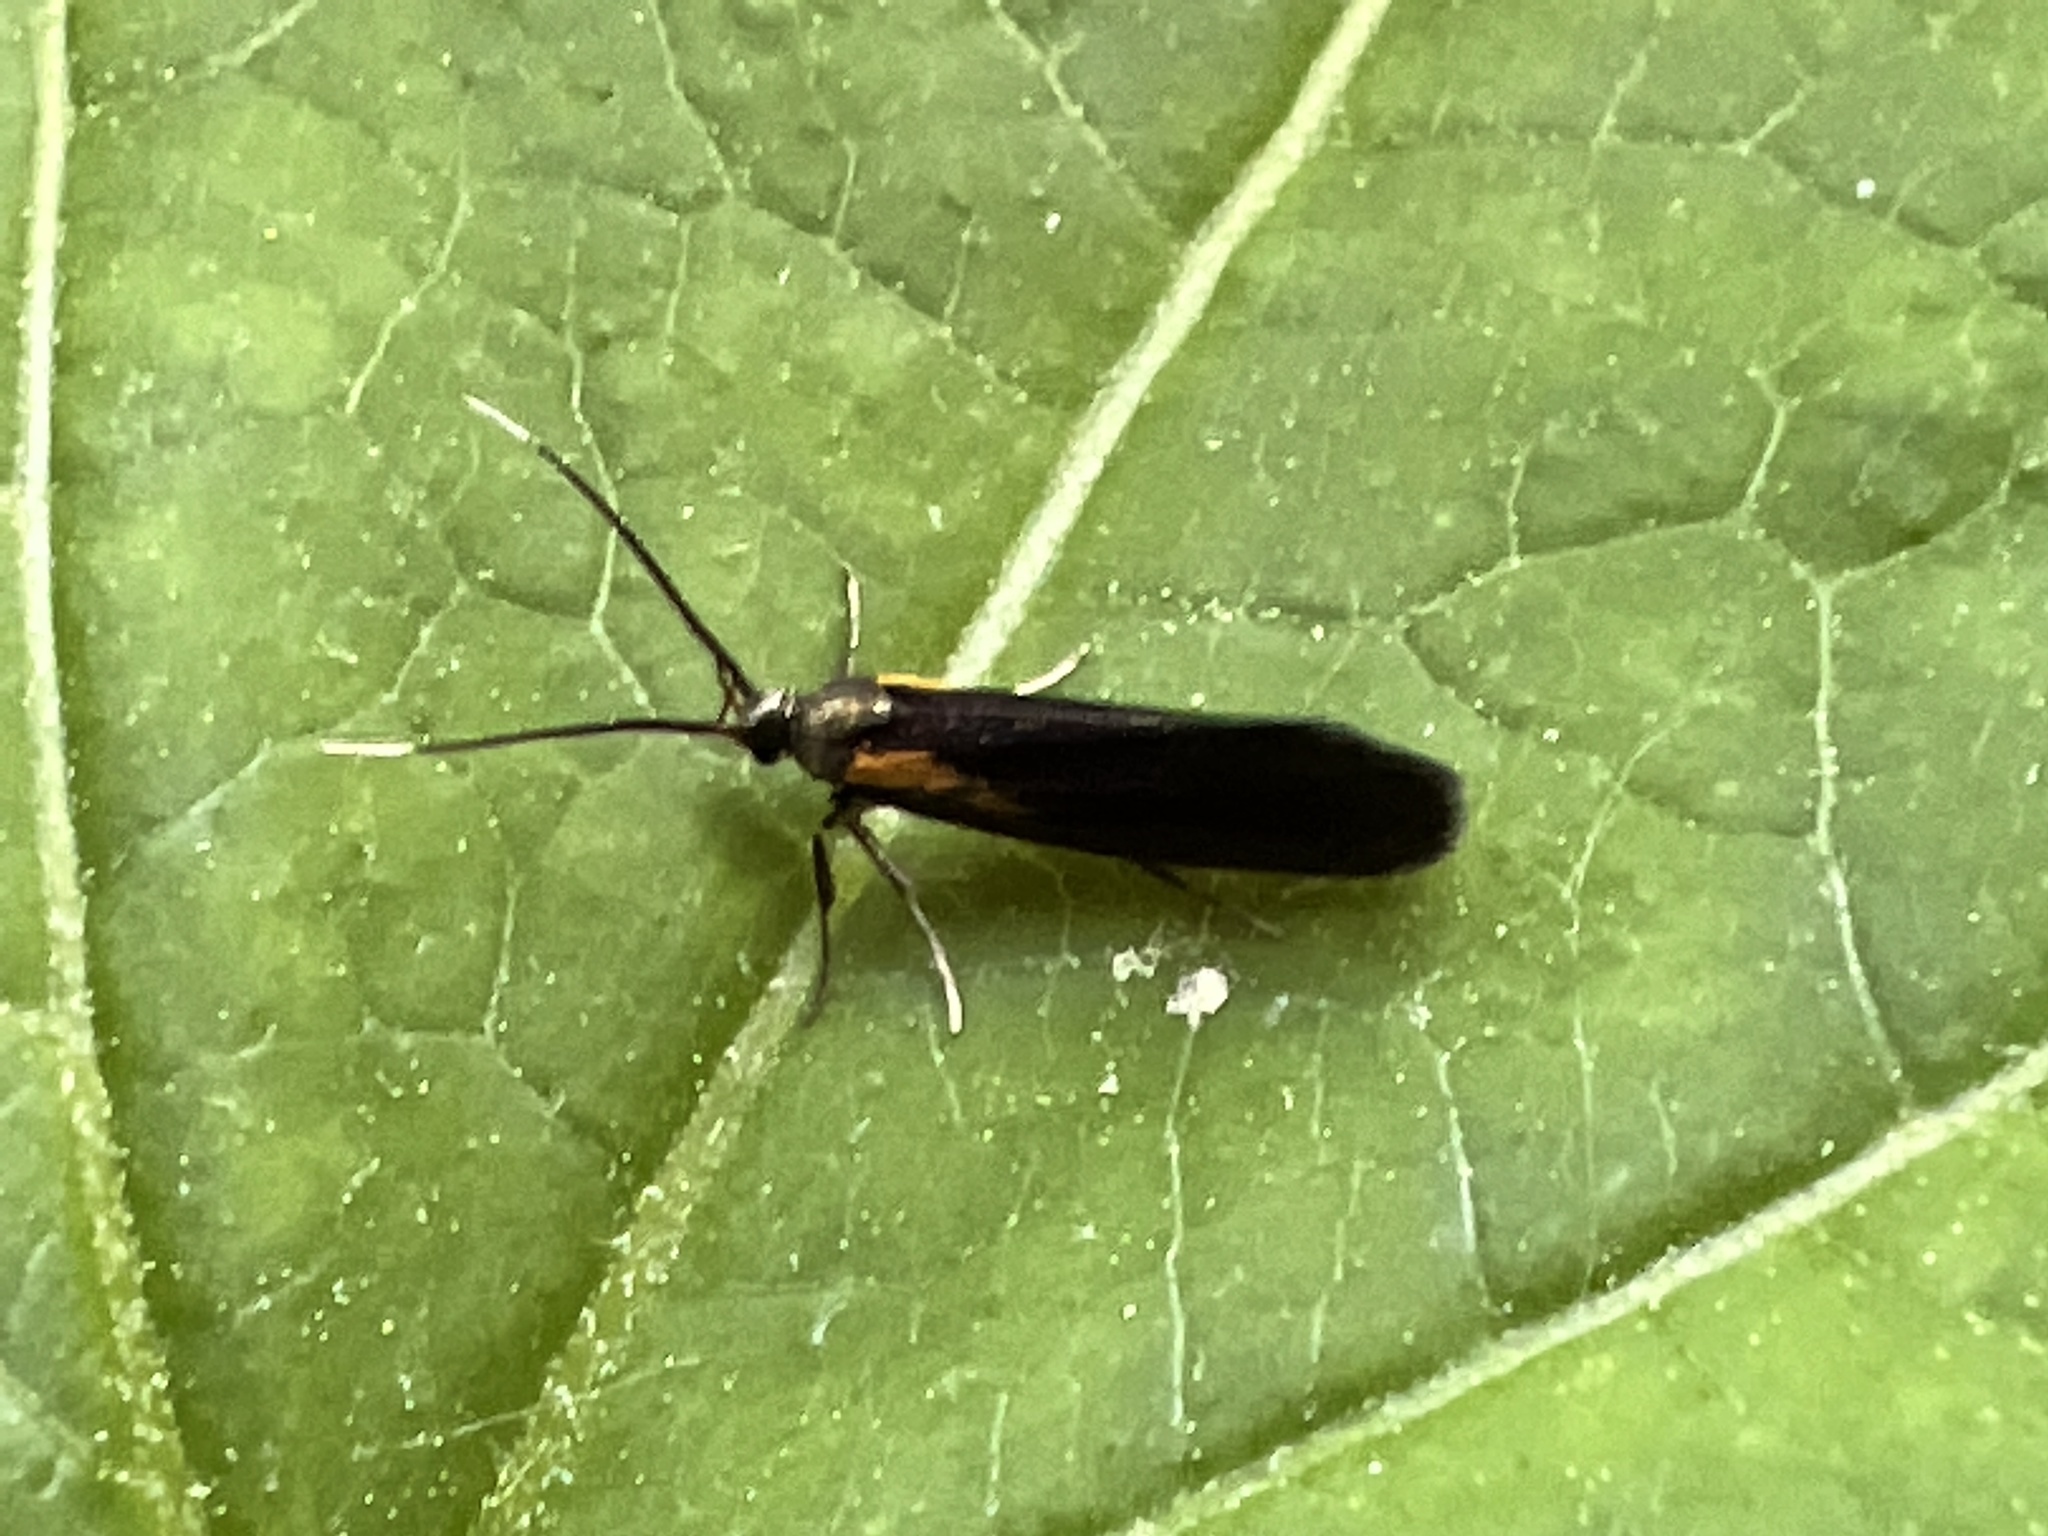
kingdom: Animalia
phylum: Arthropoda
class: Insecta
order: Lepidoptera
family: Oecophoridae
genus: Mathildana
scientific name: Mathildana newmanella
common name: Newman's mathildana moth
